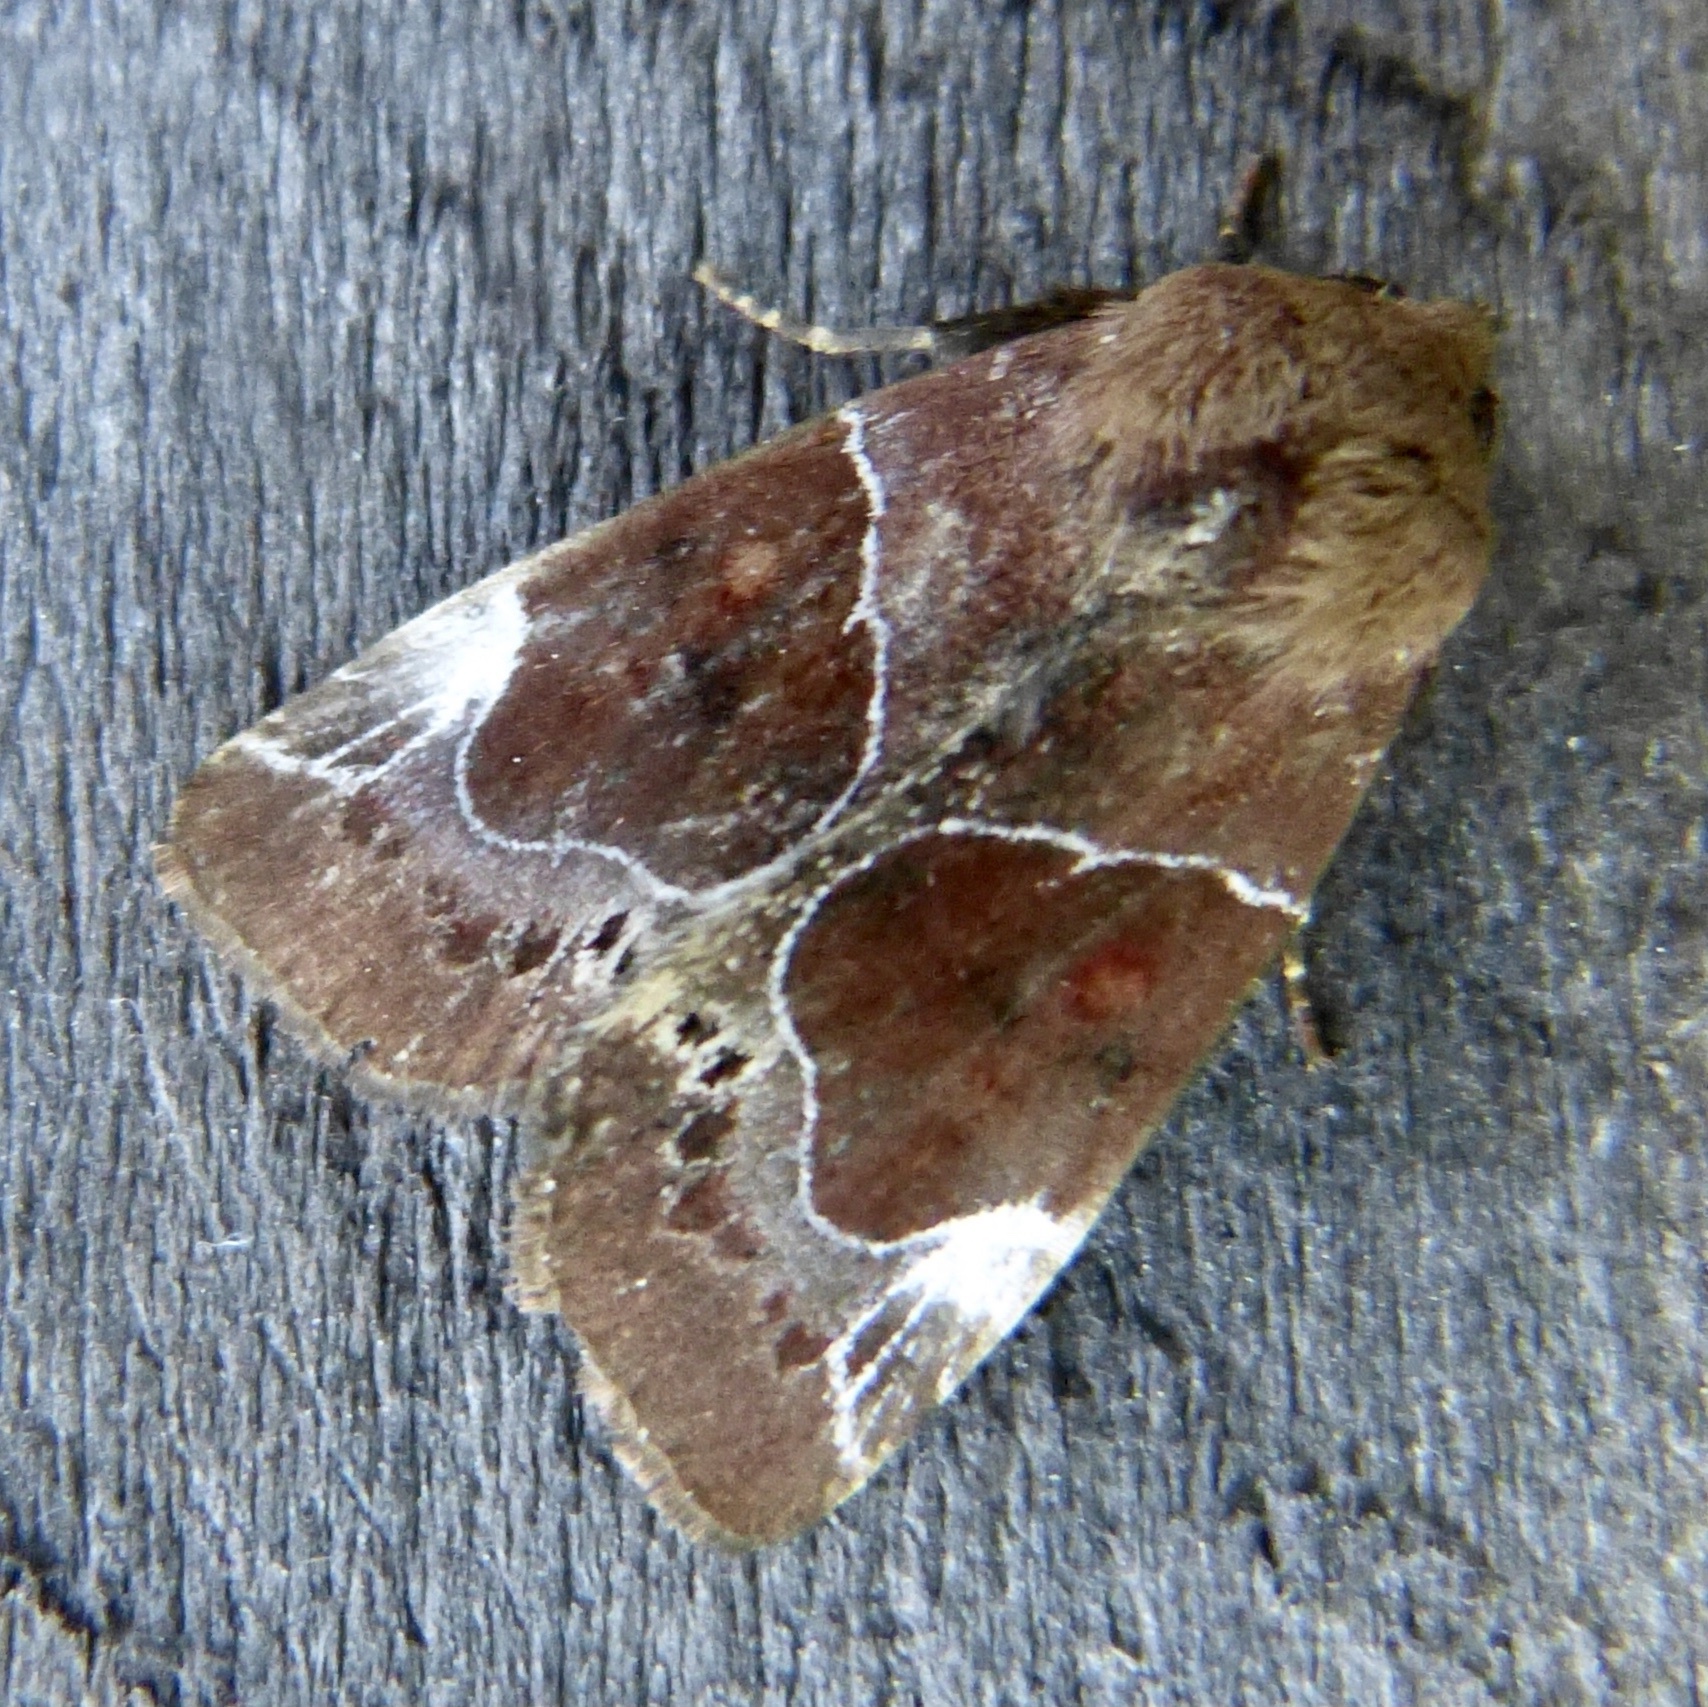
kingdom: Animalia
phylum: Arthropoda
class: Insecta
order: Lepidoptera
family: Noctuidae
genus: Hampsonodes
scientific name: Hampsonodes mastoides
